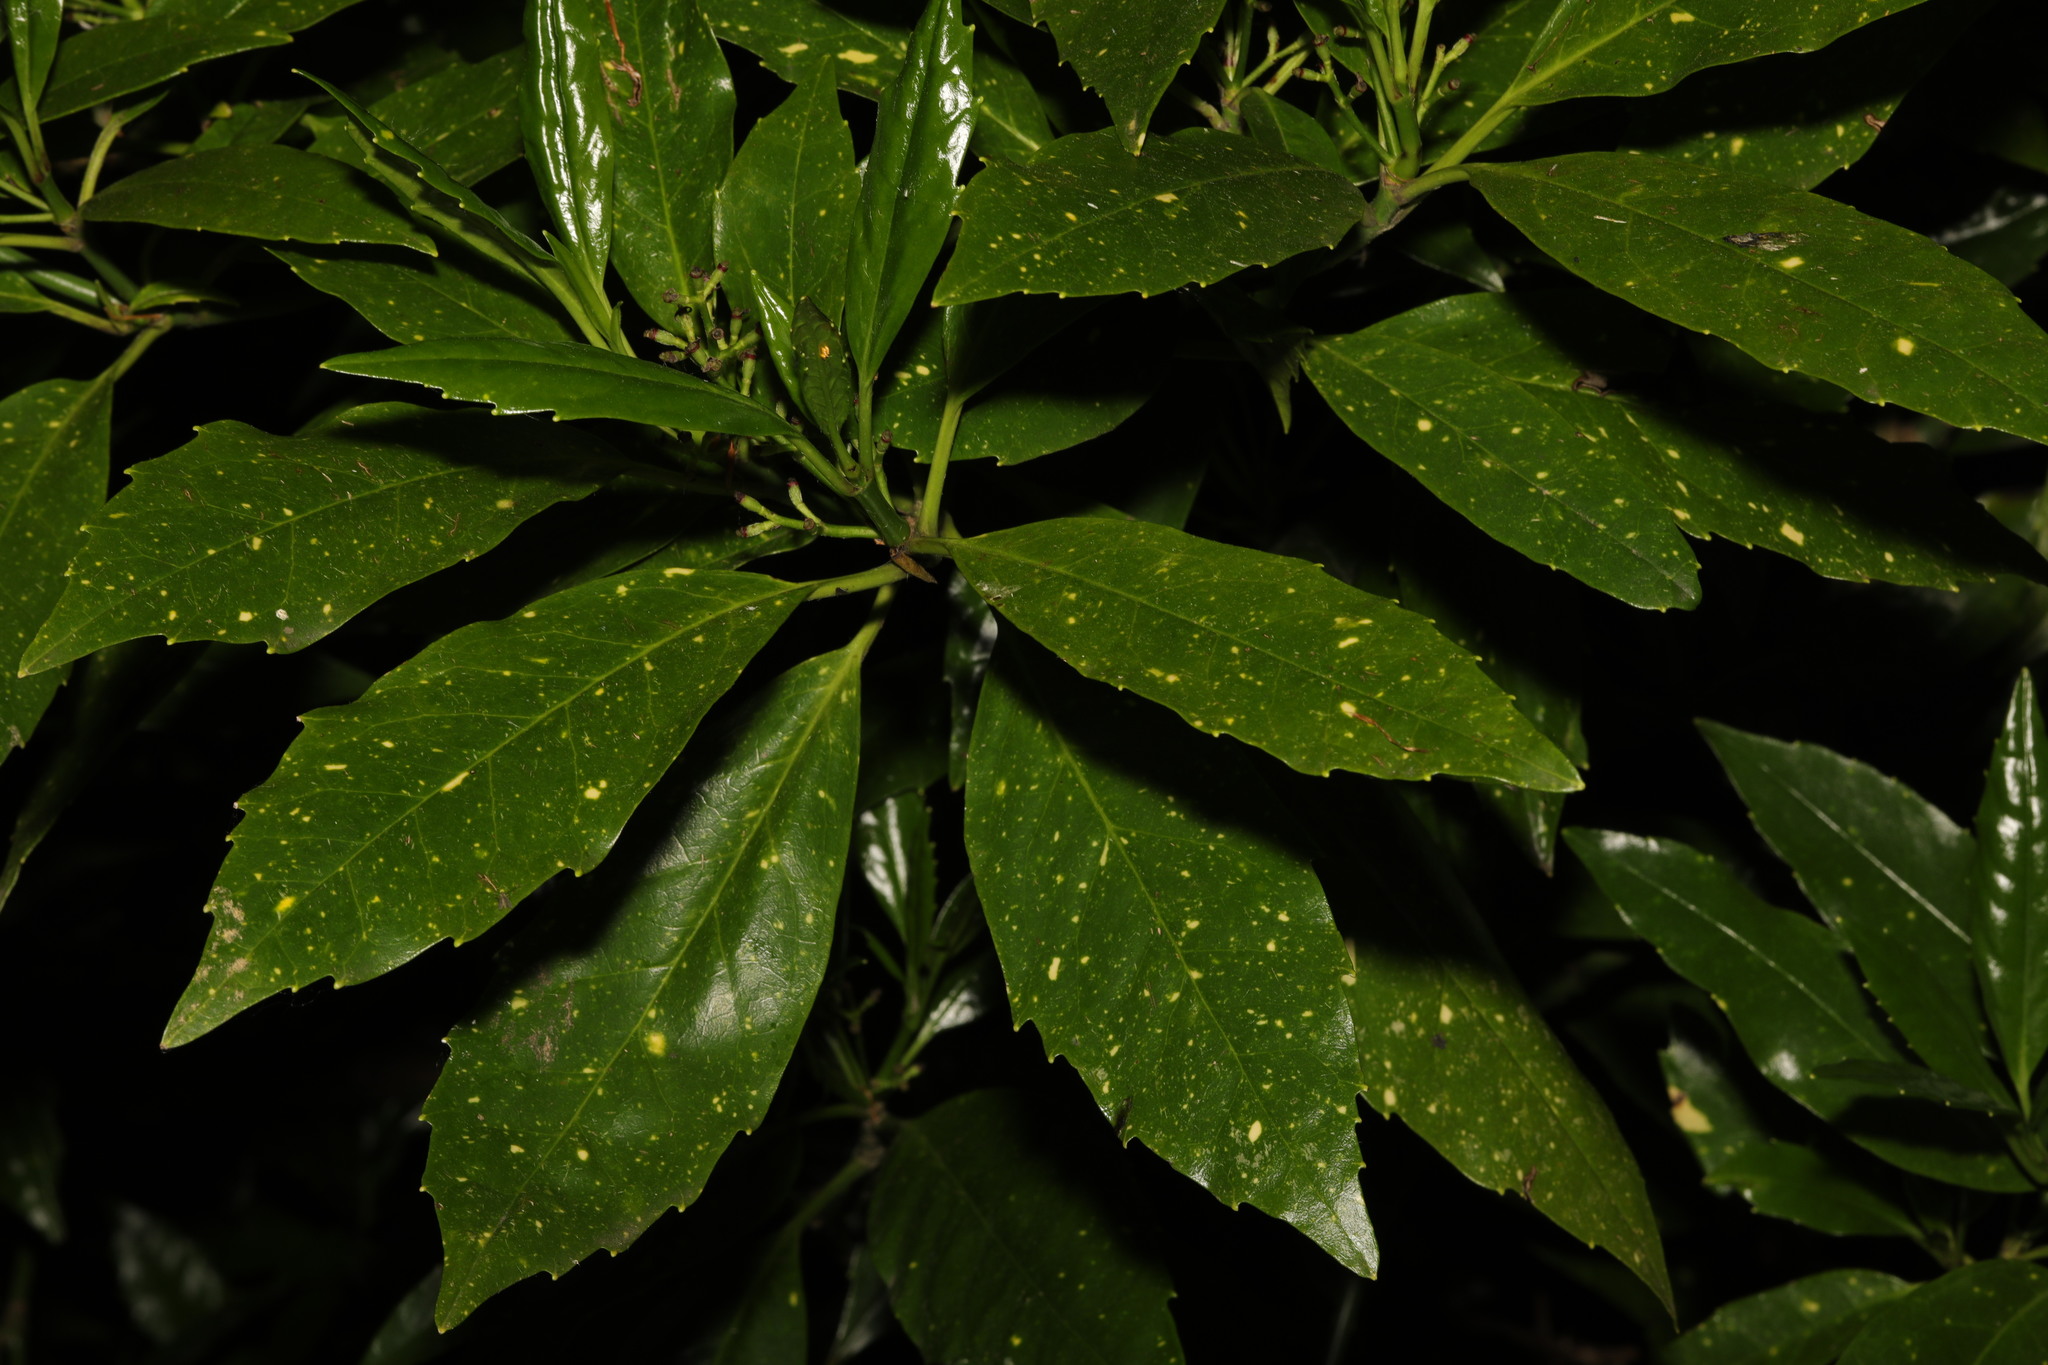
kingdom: Plantae
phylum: Tracheophyta
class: Magnoliopsida
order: Garryales
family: Garryaceae
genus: Aucuba
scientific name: Aucuba japonica
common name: Spotted-laurel
